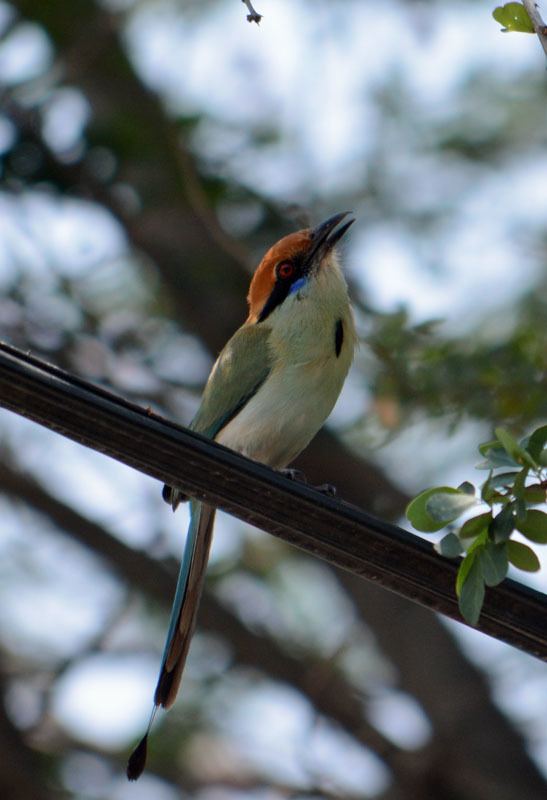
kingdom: Animalia
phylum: Chordata
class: Aves
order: Coraciiformes
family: Momotidae
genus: Momotus
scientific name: Momotus mexicanus
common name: Russet-crowned motmot
